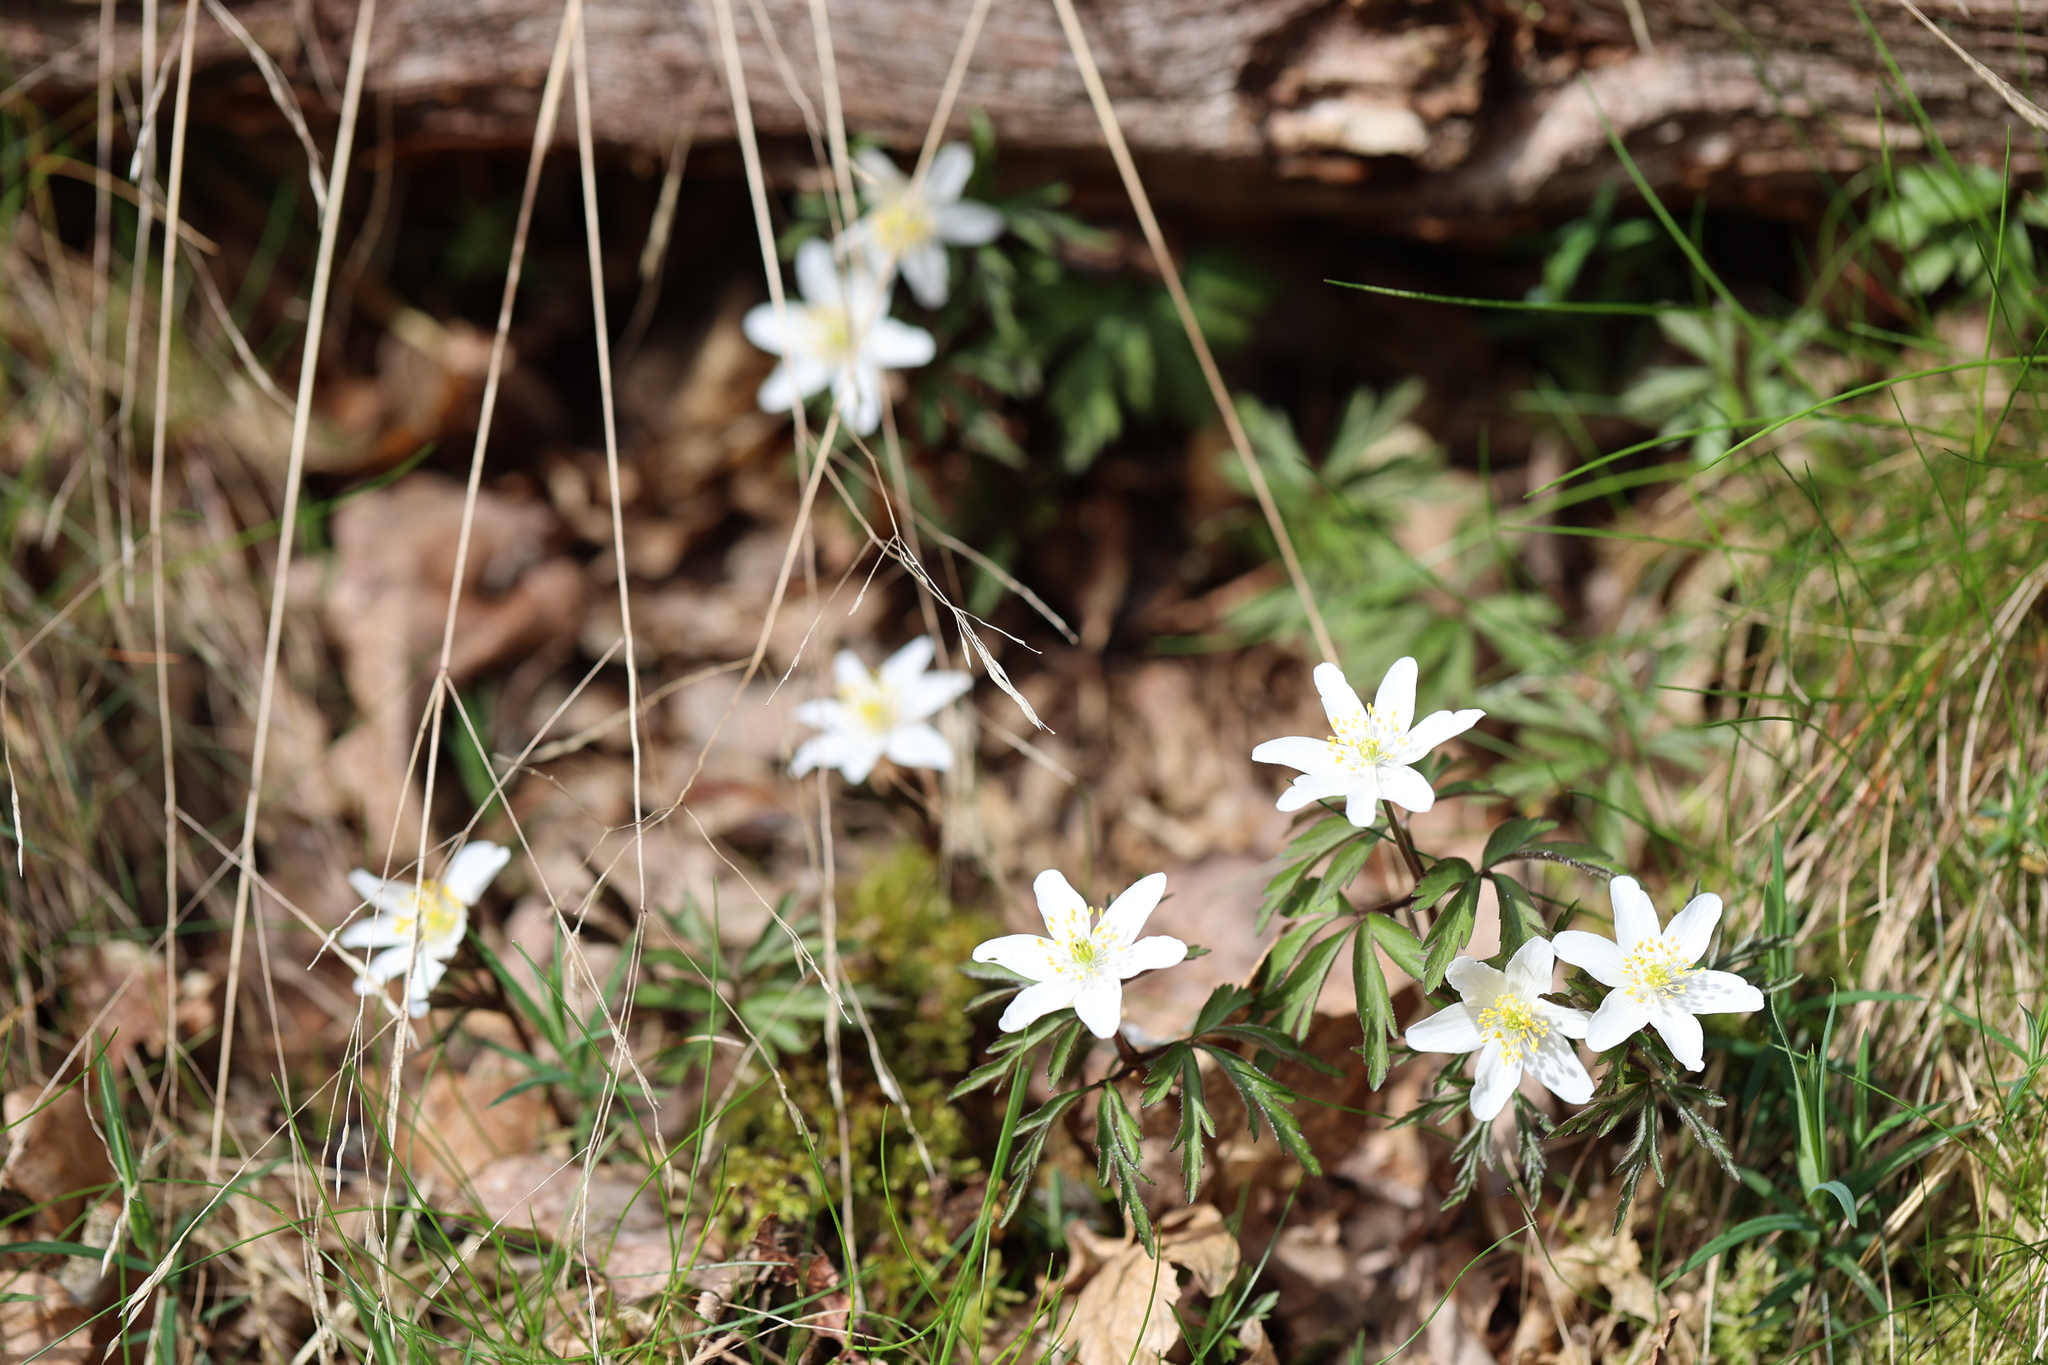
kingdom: Plantae
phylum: Tracheophyta
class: Magnoliopsida
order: Ranunculales
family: Ranunculaceae
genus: Anemone
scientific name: Anemone nemorosa
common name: Wood anemone
